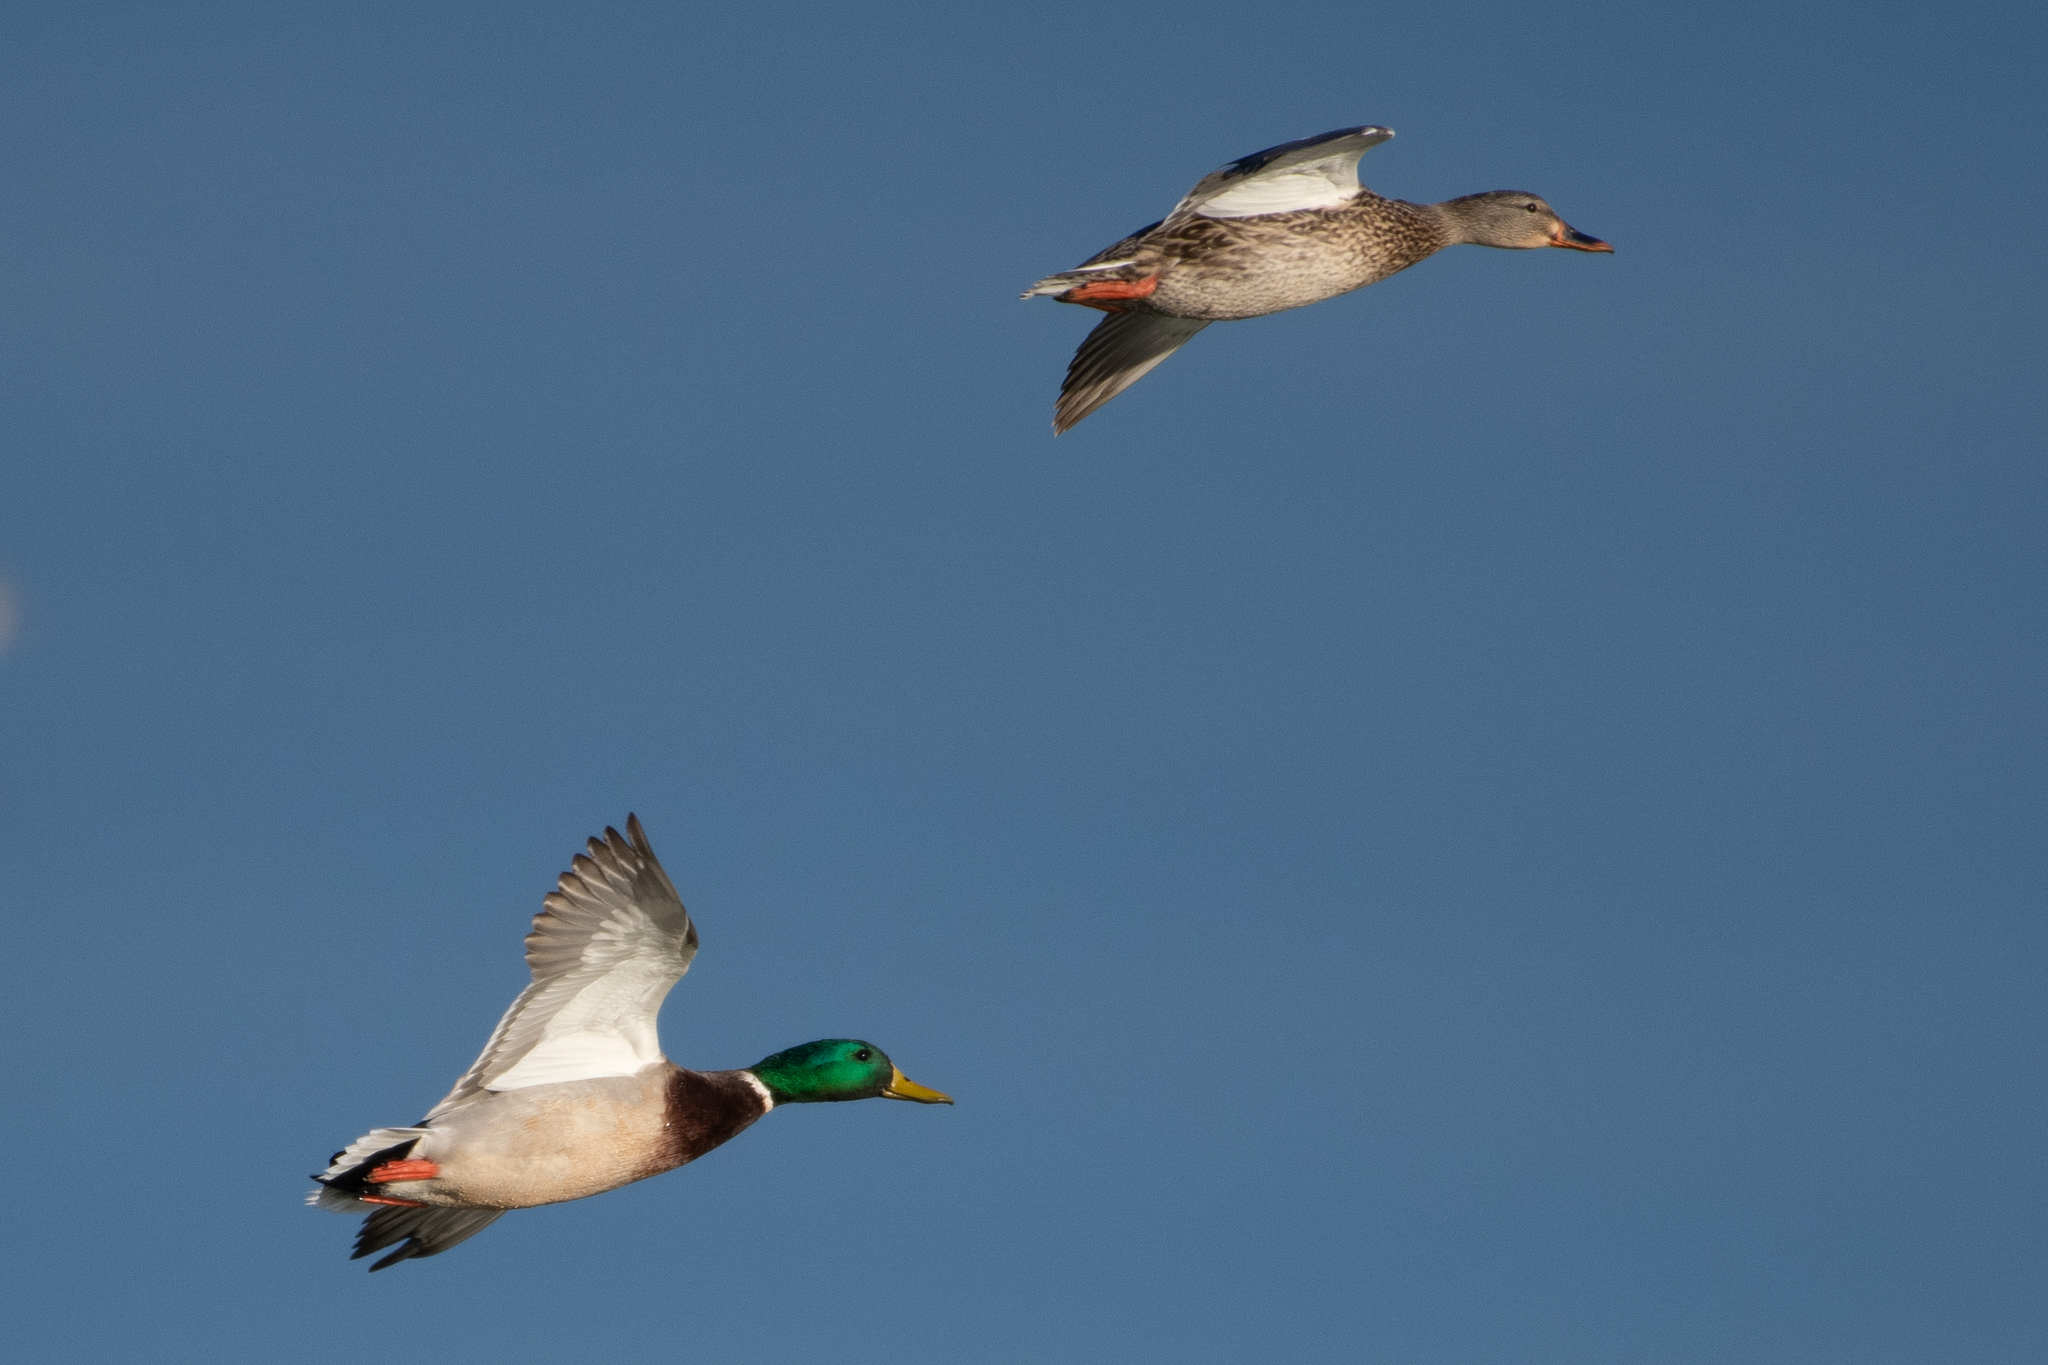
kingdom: Animalia
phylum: Chordata
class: Aves
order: Anseriformes
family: Anatidae
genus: Anas
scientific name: Anas platyrhynchos
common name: Mallard
